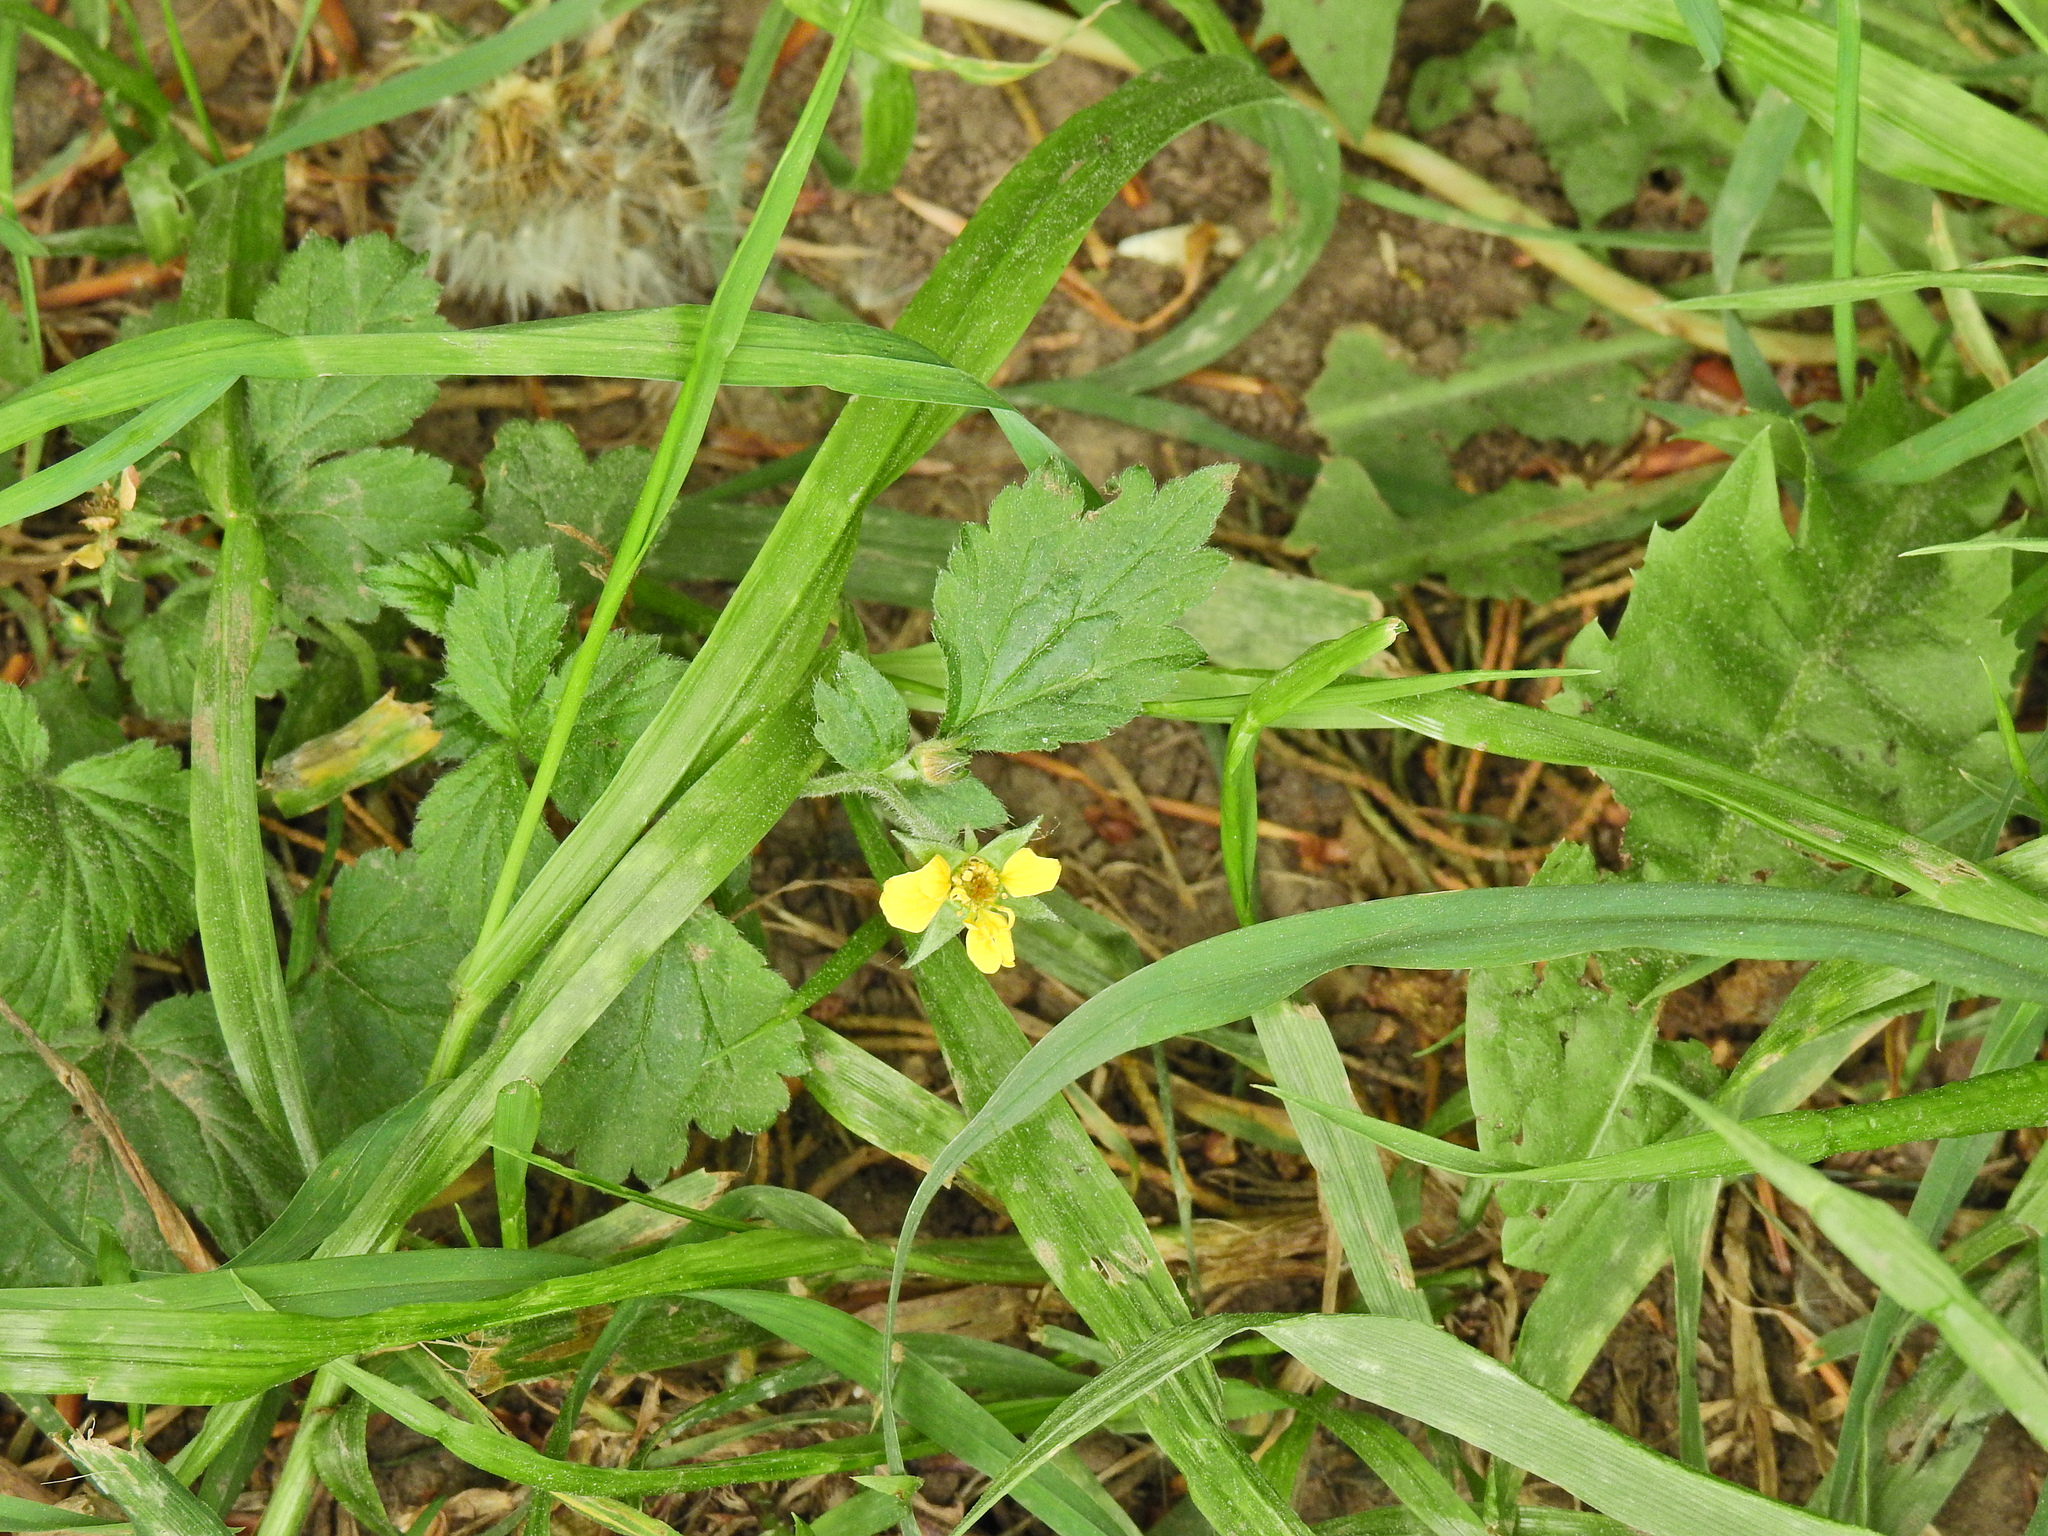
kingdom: Plantae
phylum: Tracheophyta
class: Magnoliopsida
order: Rosales
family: Rosaceae
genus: Geum
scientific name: Geum urbanum
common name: Wood avens
